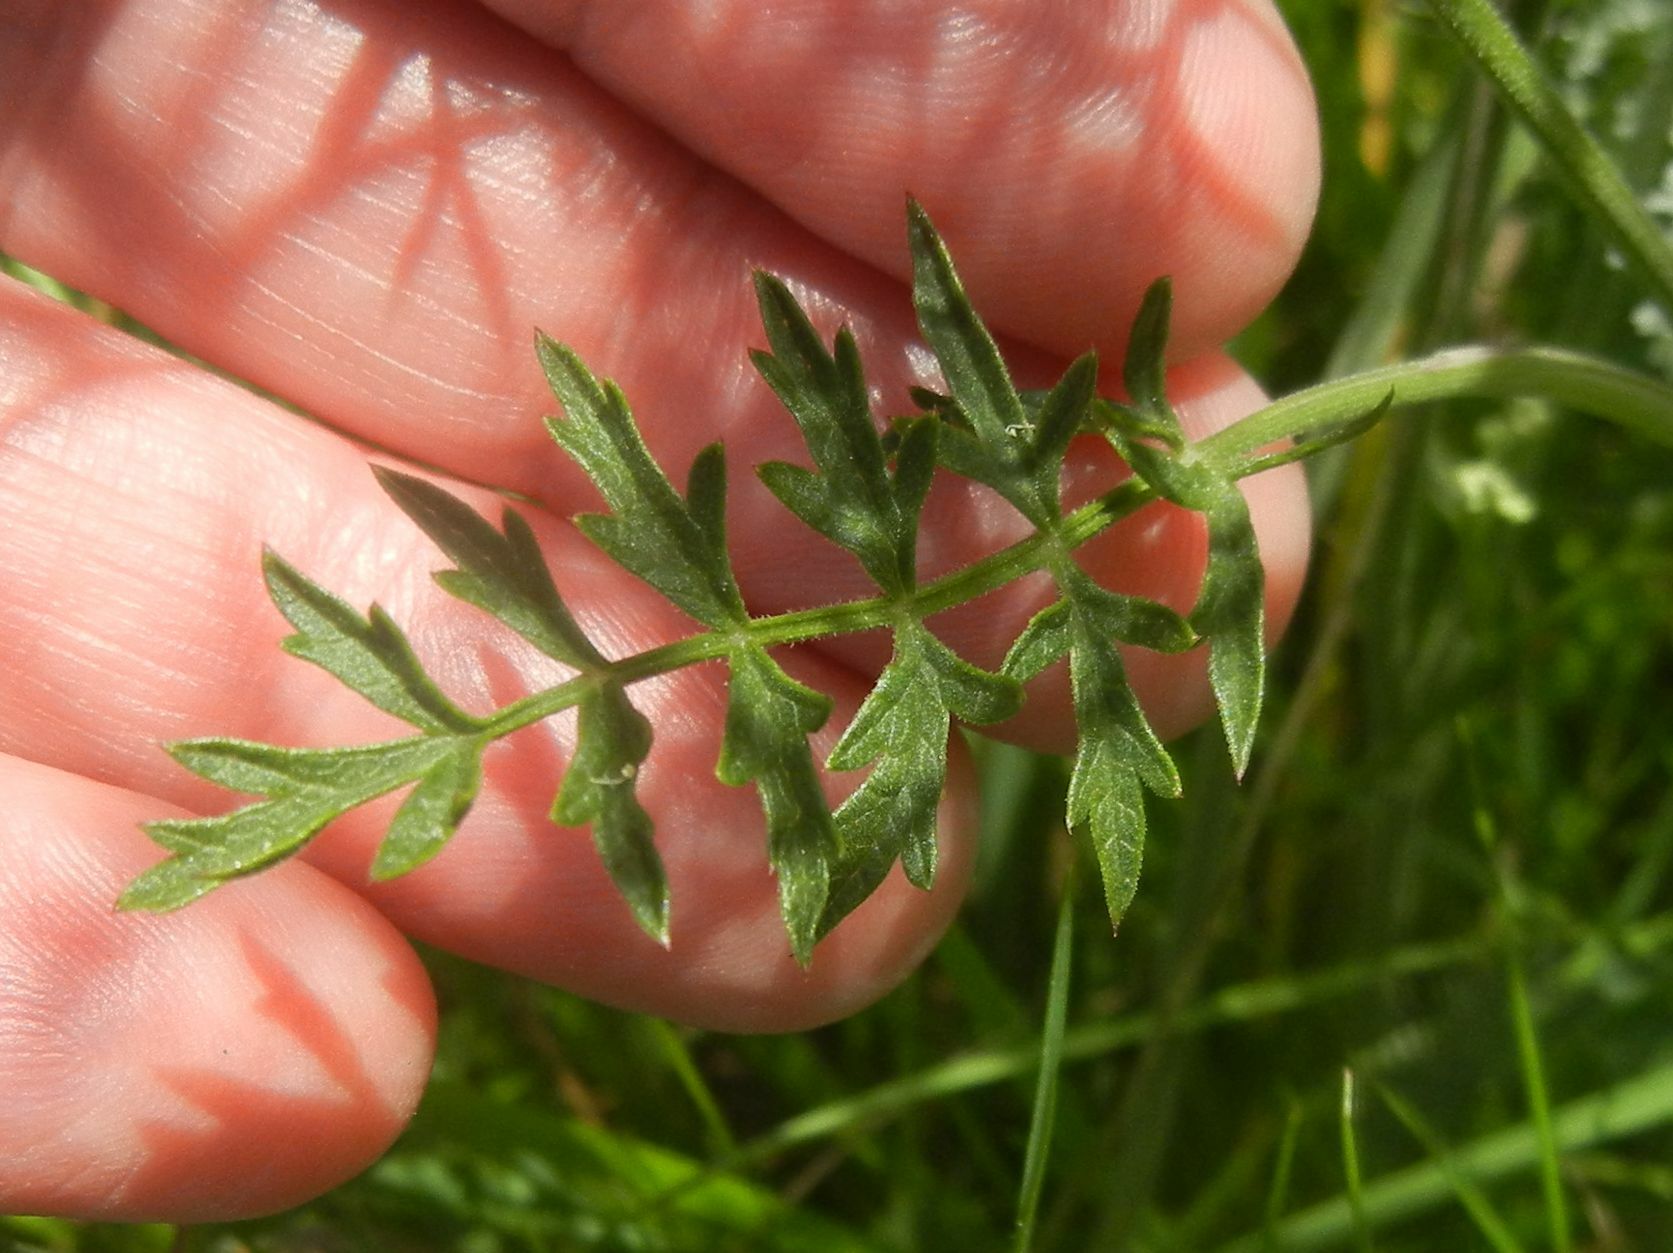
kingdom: Plantae
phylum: Tracheophyta
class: Magnoliopsida
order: Apiales
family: Apiaceae
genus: Pimpinella
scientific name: Pimpinella saxifraga
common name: Burnet-saxifrage
